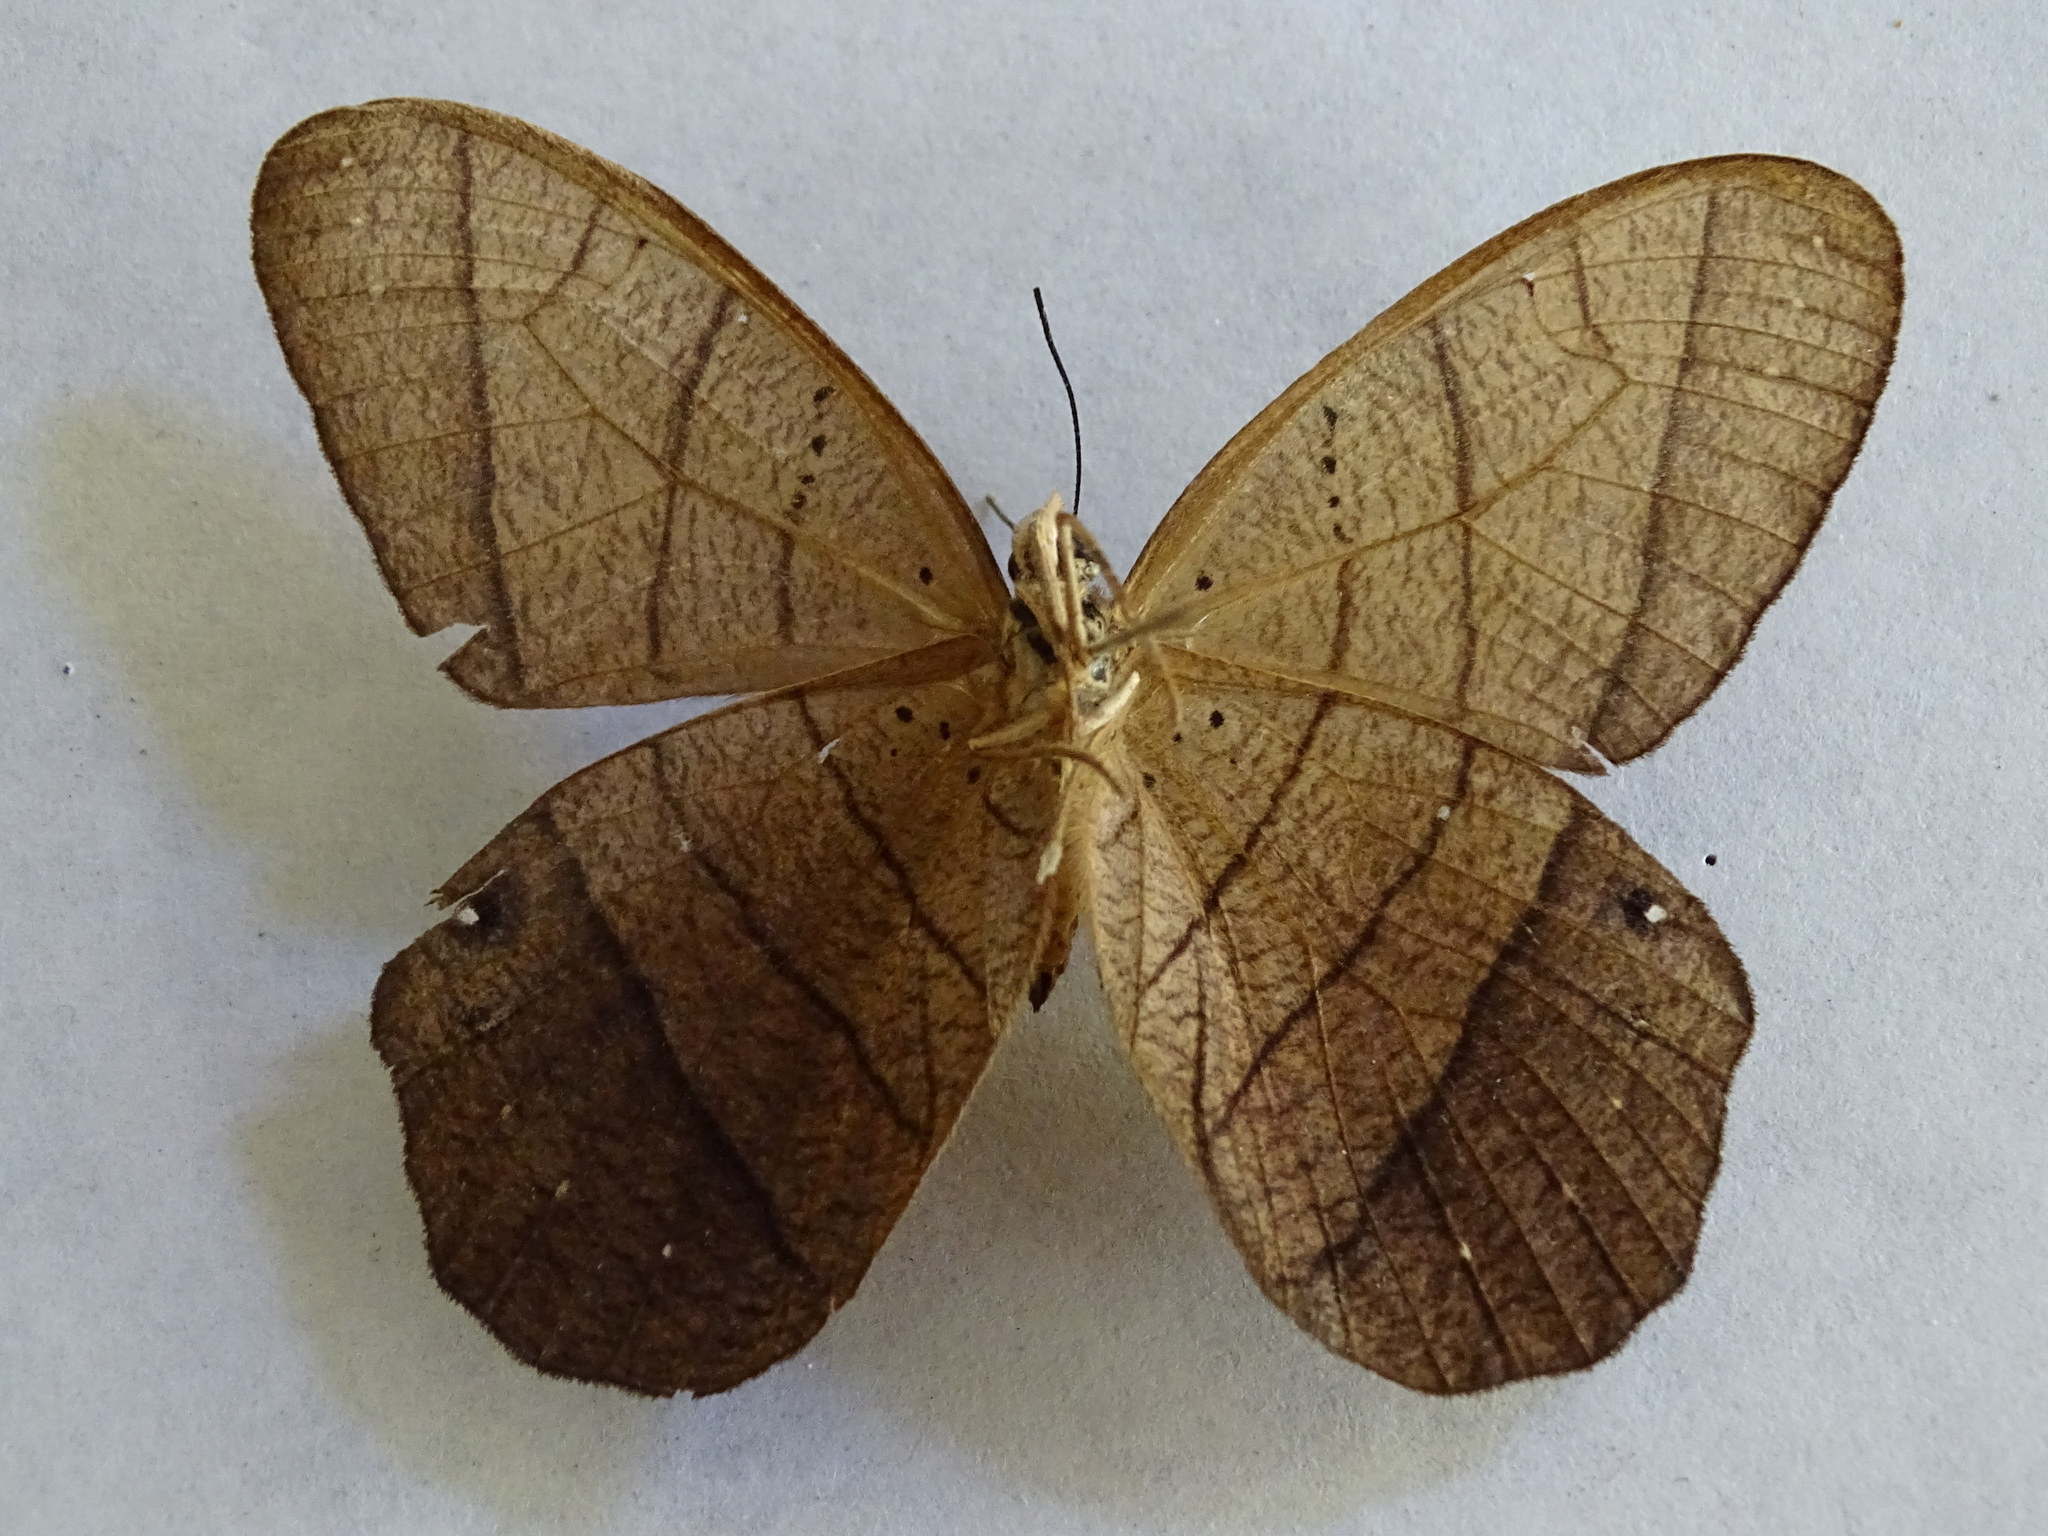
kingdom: Animalia
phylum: Arthropoda
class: Insecta
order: Lepidoptera
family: Nymphalidae
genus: Pierella
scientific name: Pierella luna
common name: Moon satyr
